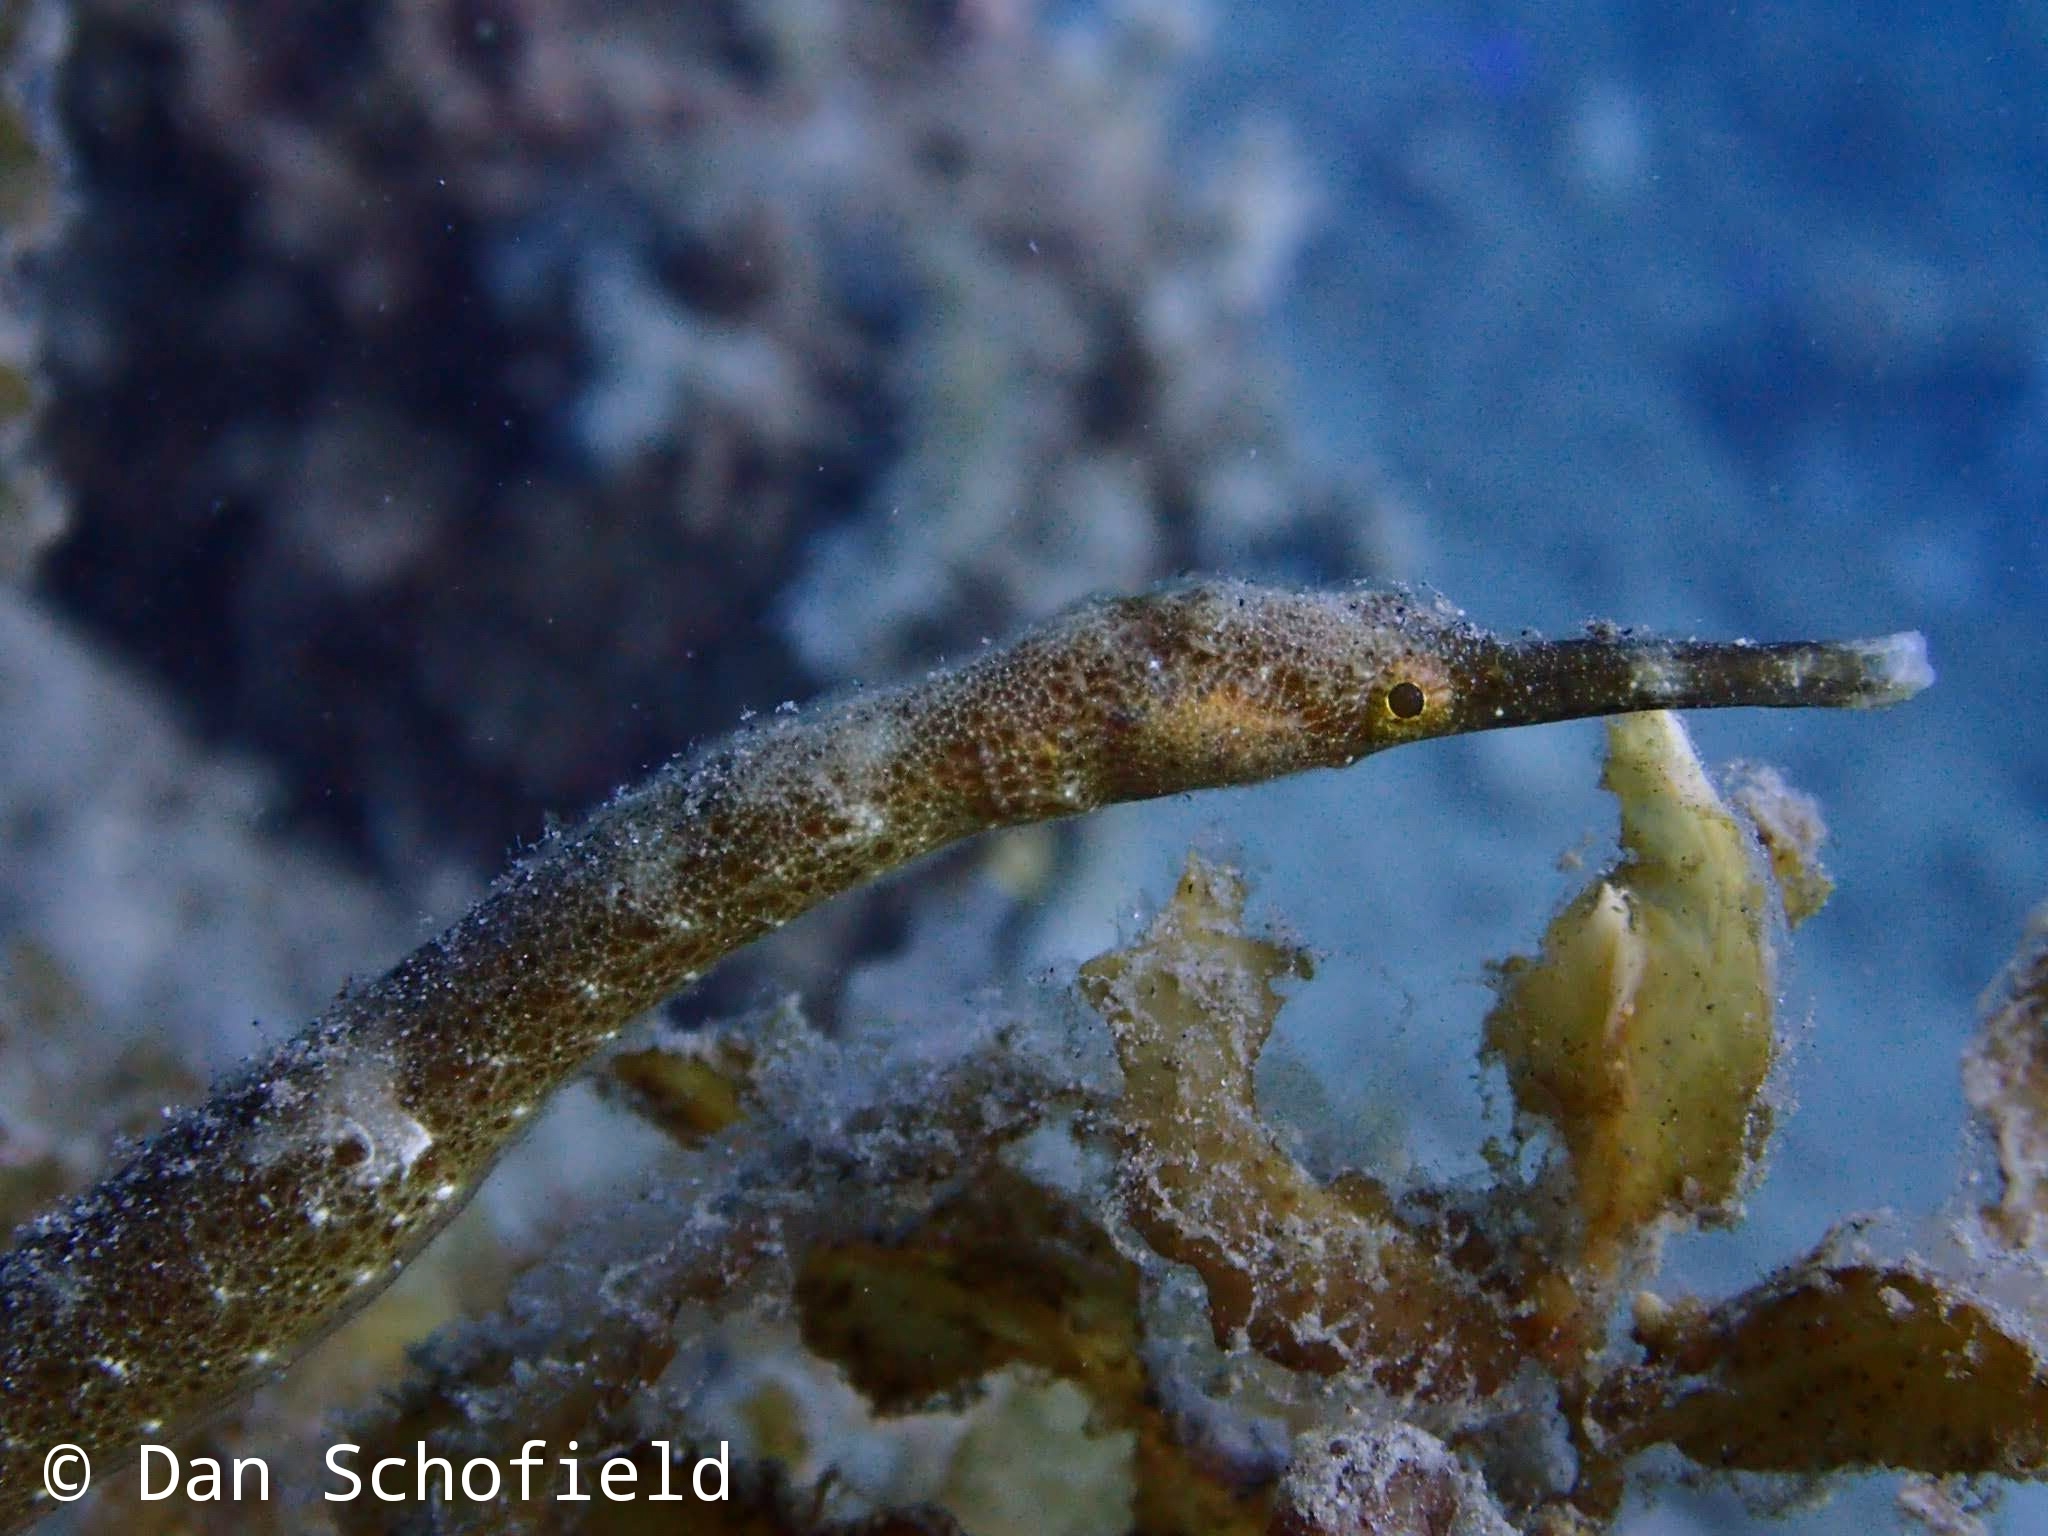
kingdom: Animalia
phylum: Chordata
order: Syngnathiformes
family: Syngnathidae
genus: Trachyrhamphus
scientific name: Trachyrhamphus bicoarctatus
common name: Double-ended pipefish
